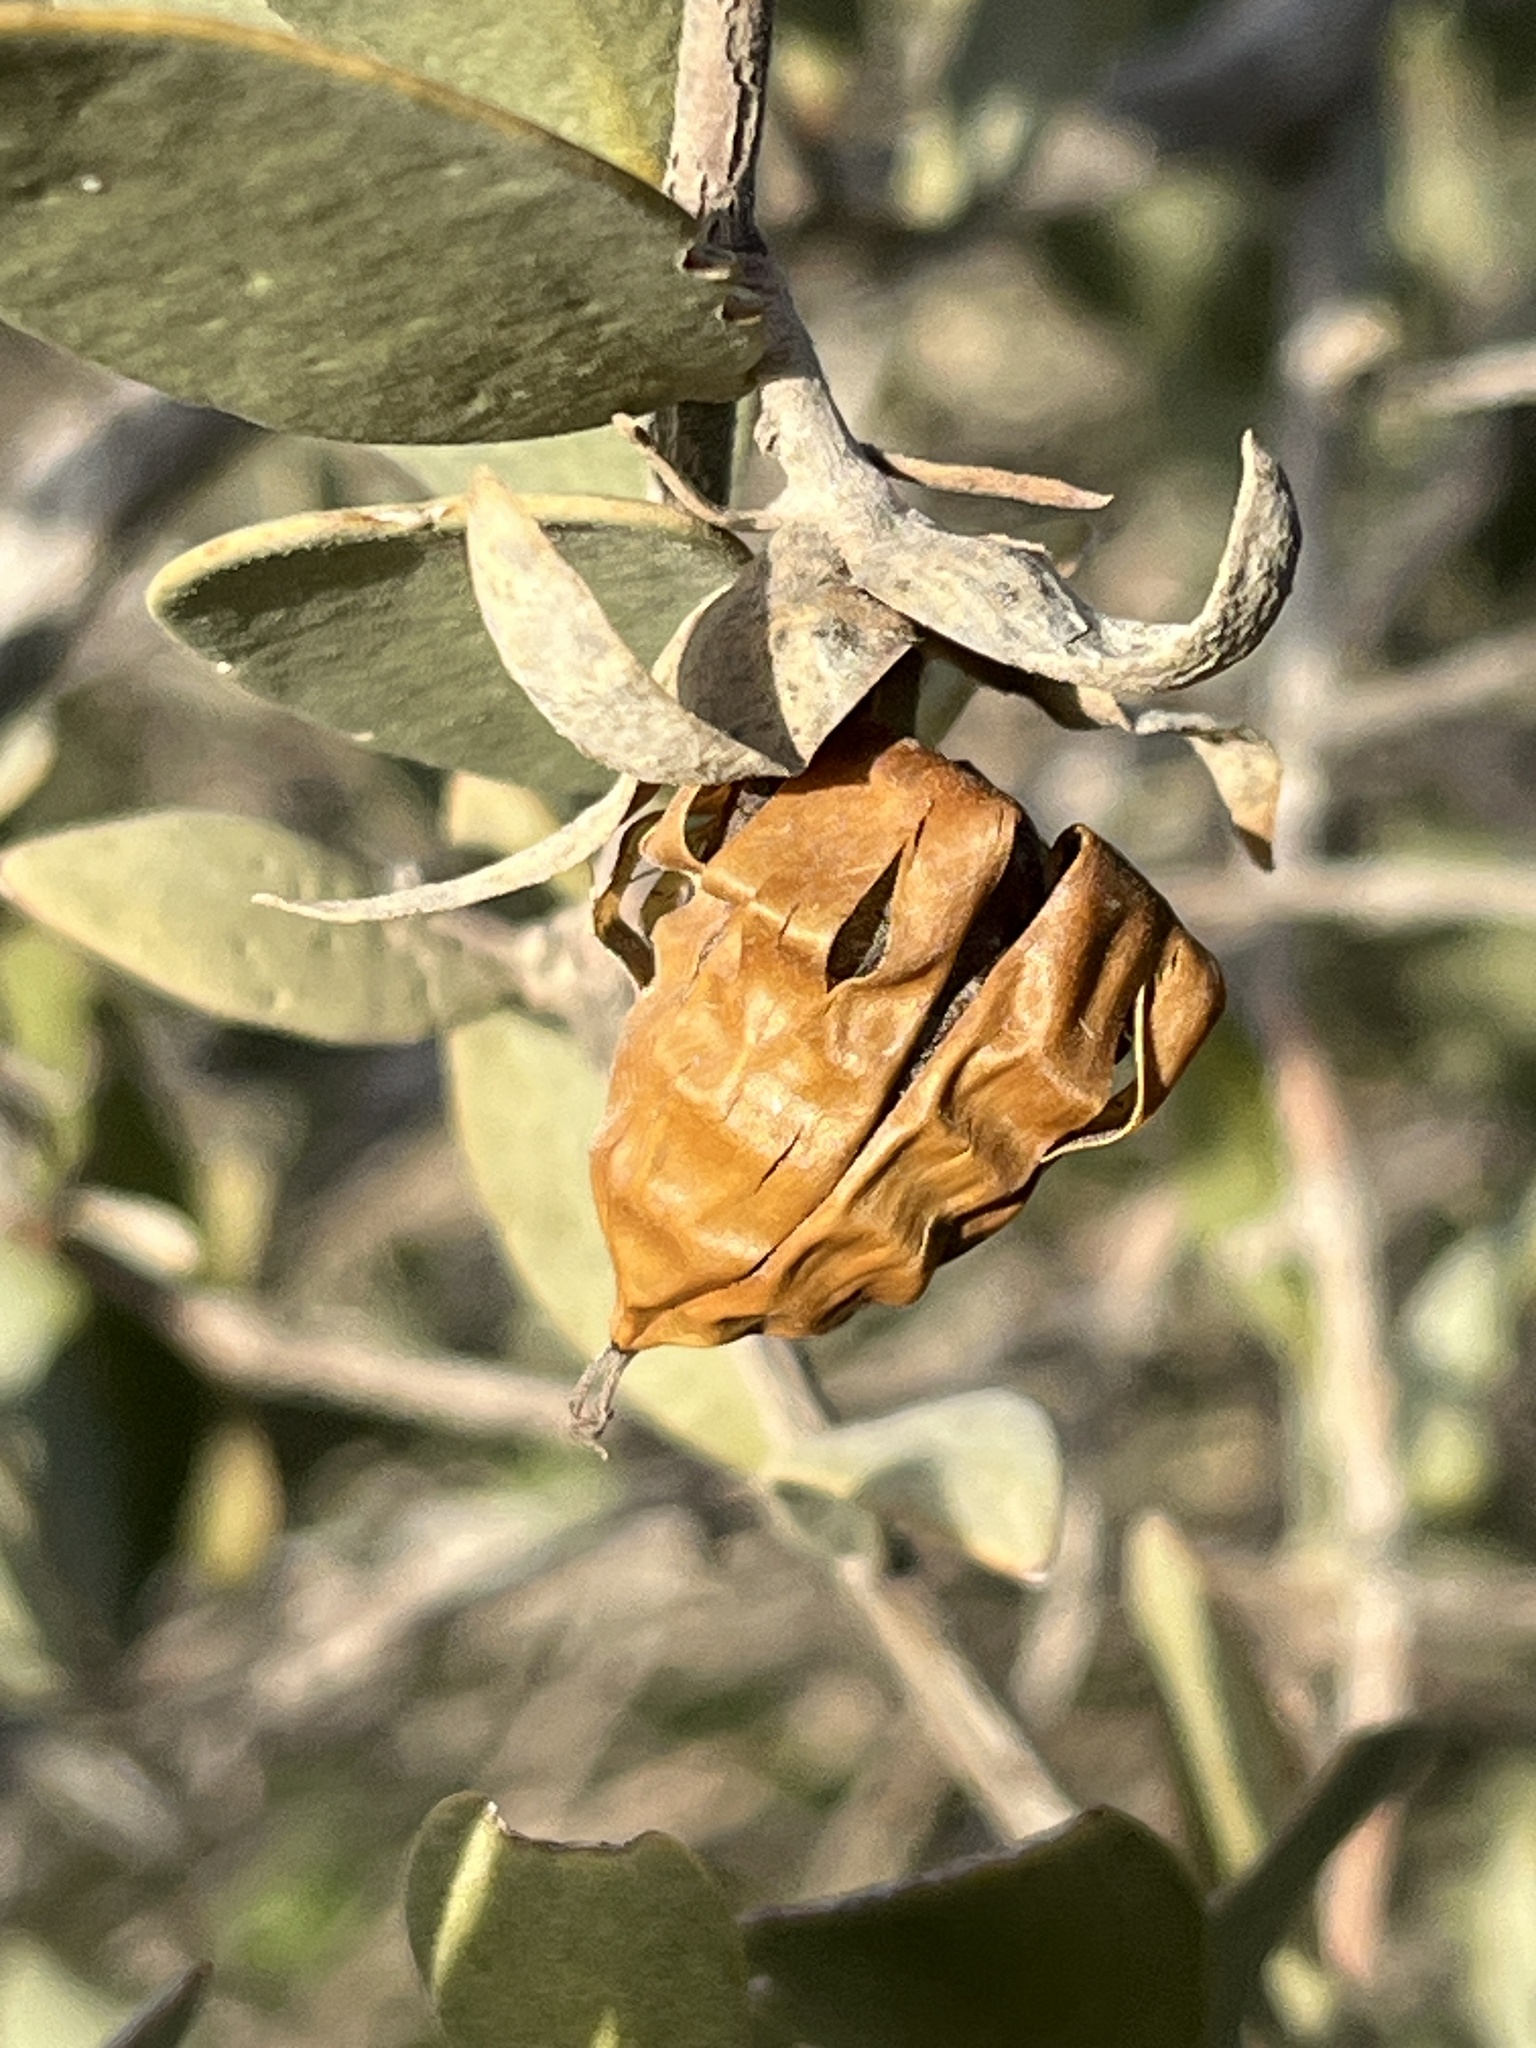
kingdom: Plantae
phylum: Tracheophyta
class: Magnoliopsida
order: Caryophyllales
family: Simmondsiaceae
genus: Simmondsia
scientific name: Simmondsia chinensis
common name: Jojoba
